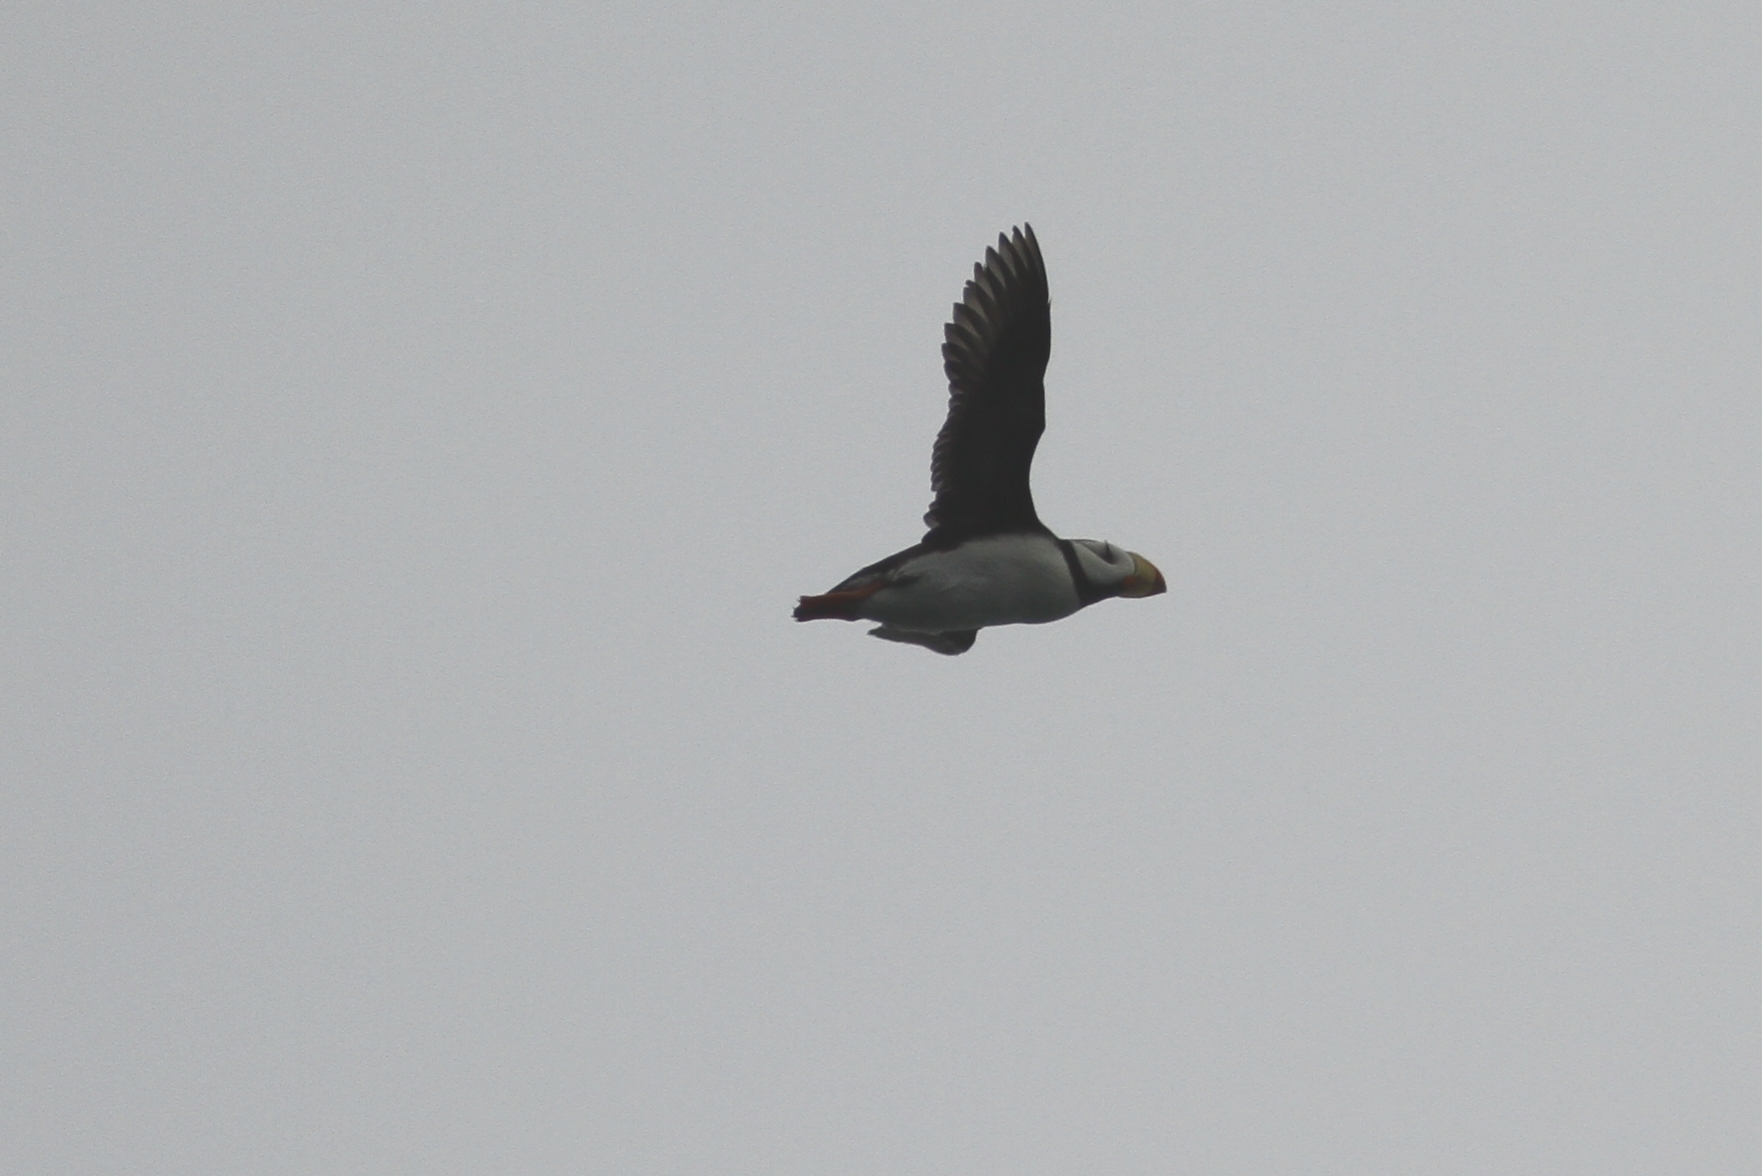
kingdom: Animalia
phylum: Chordata
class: Aves
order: Charadriiformes
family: Alcidae
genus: Fratercula
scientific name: Fratercula corniculata
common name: Horned puffin
